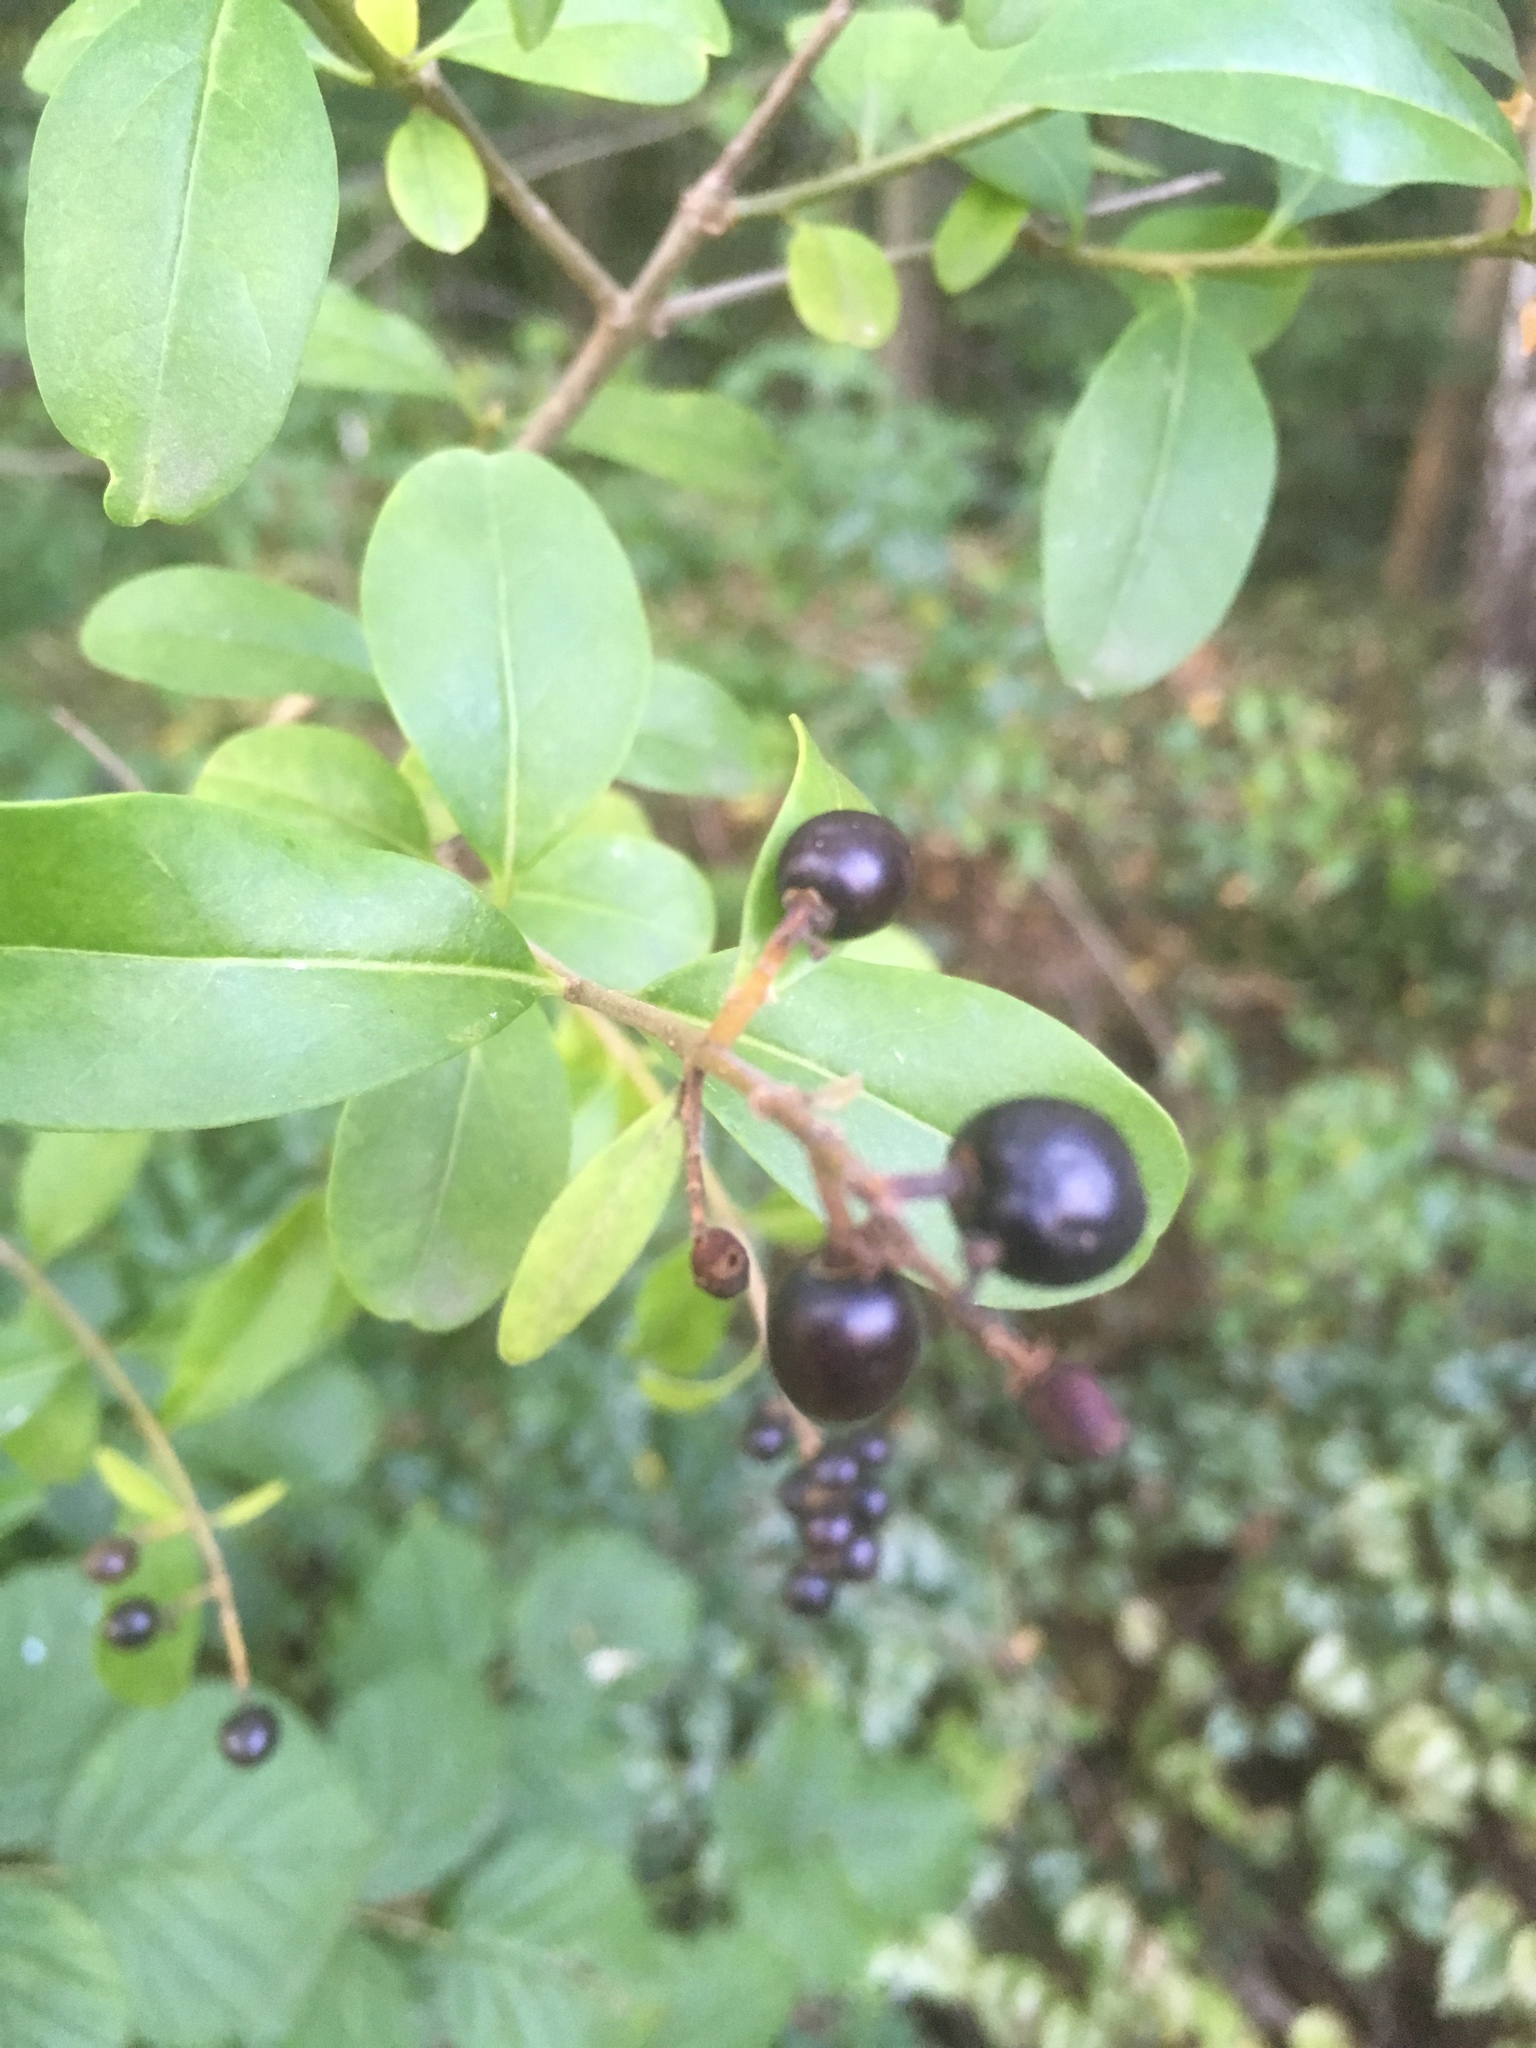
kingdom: Plantae
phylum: Tracheophyta
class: Magnoliopsida
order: Lamiales
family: Oleaceae
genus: Ligustrum
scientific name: Ligustrum vulgare
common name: Wild privet
